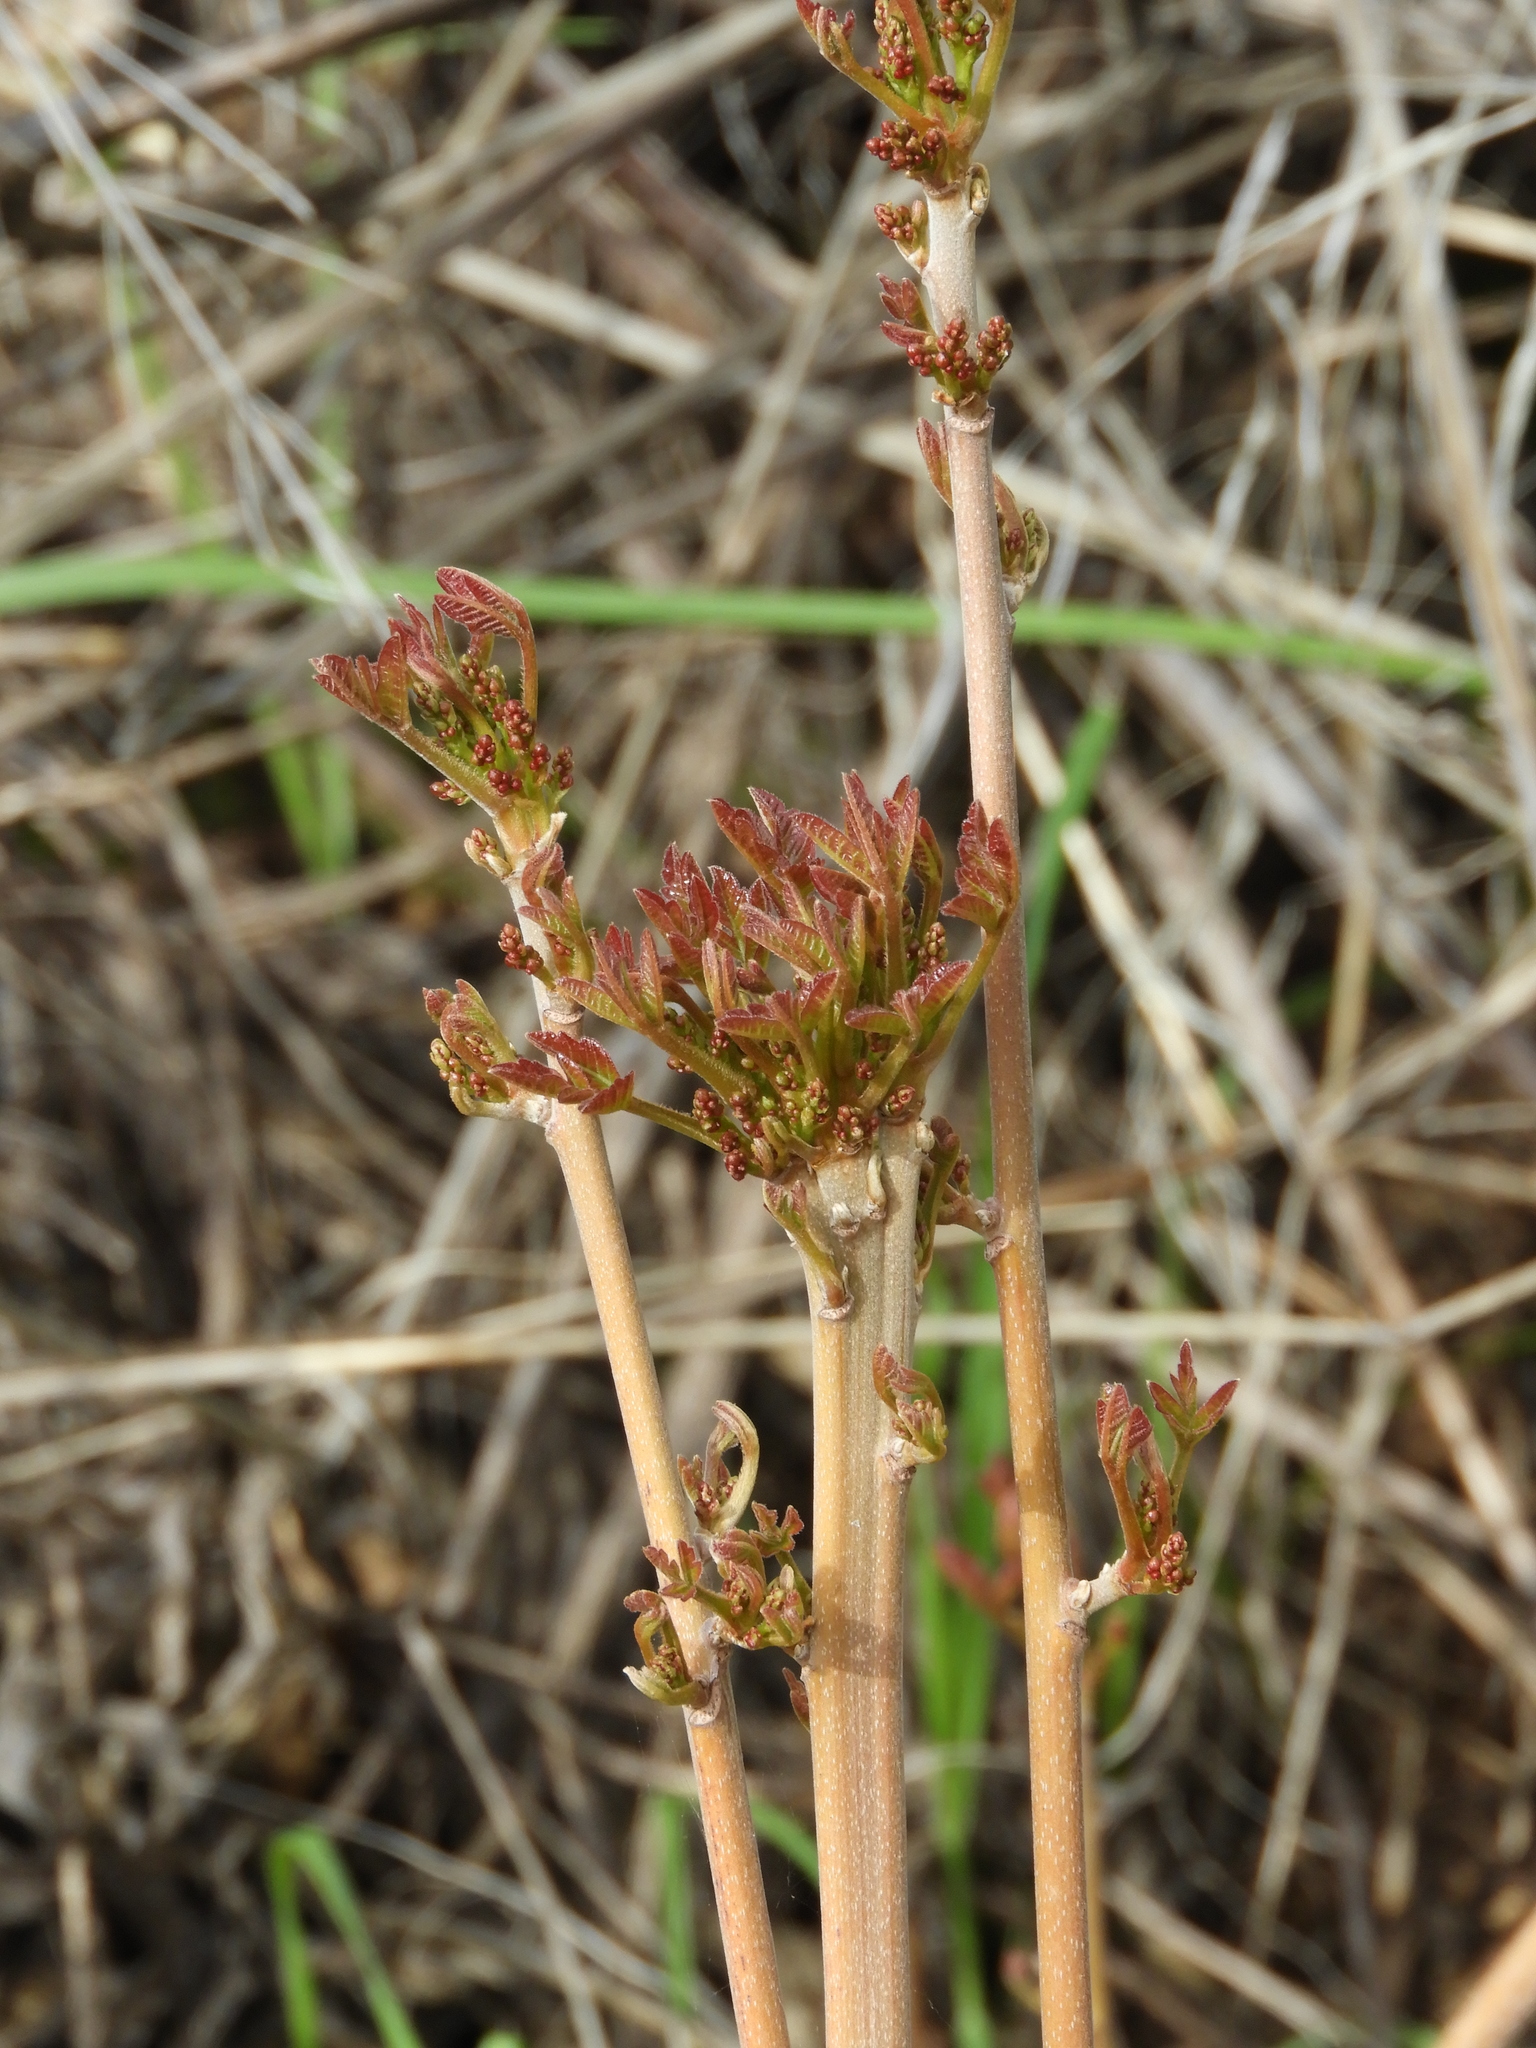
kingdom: Plantae
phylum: Tracheophyta
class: Magnoliopsida
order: Sapindales
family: Anacardiaceae
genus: Toxicodendron
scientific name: Toxicodendron diversilobum
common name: Pacific poison-oak
